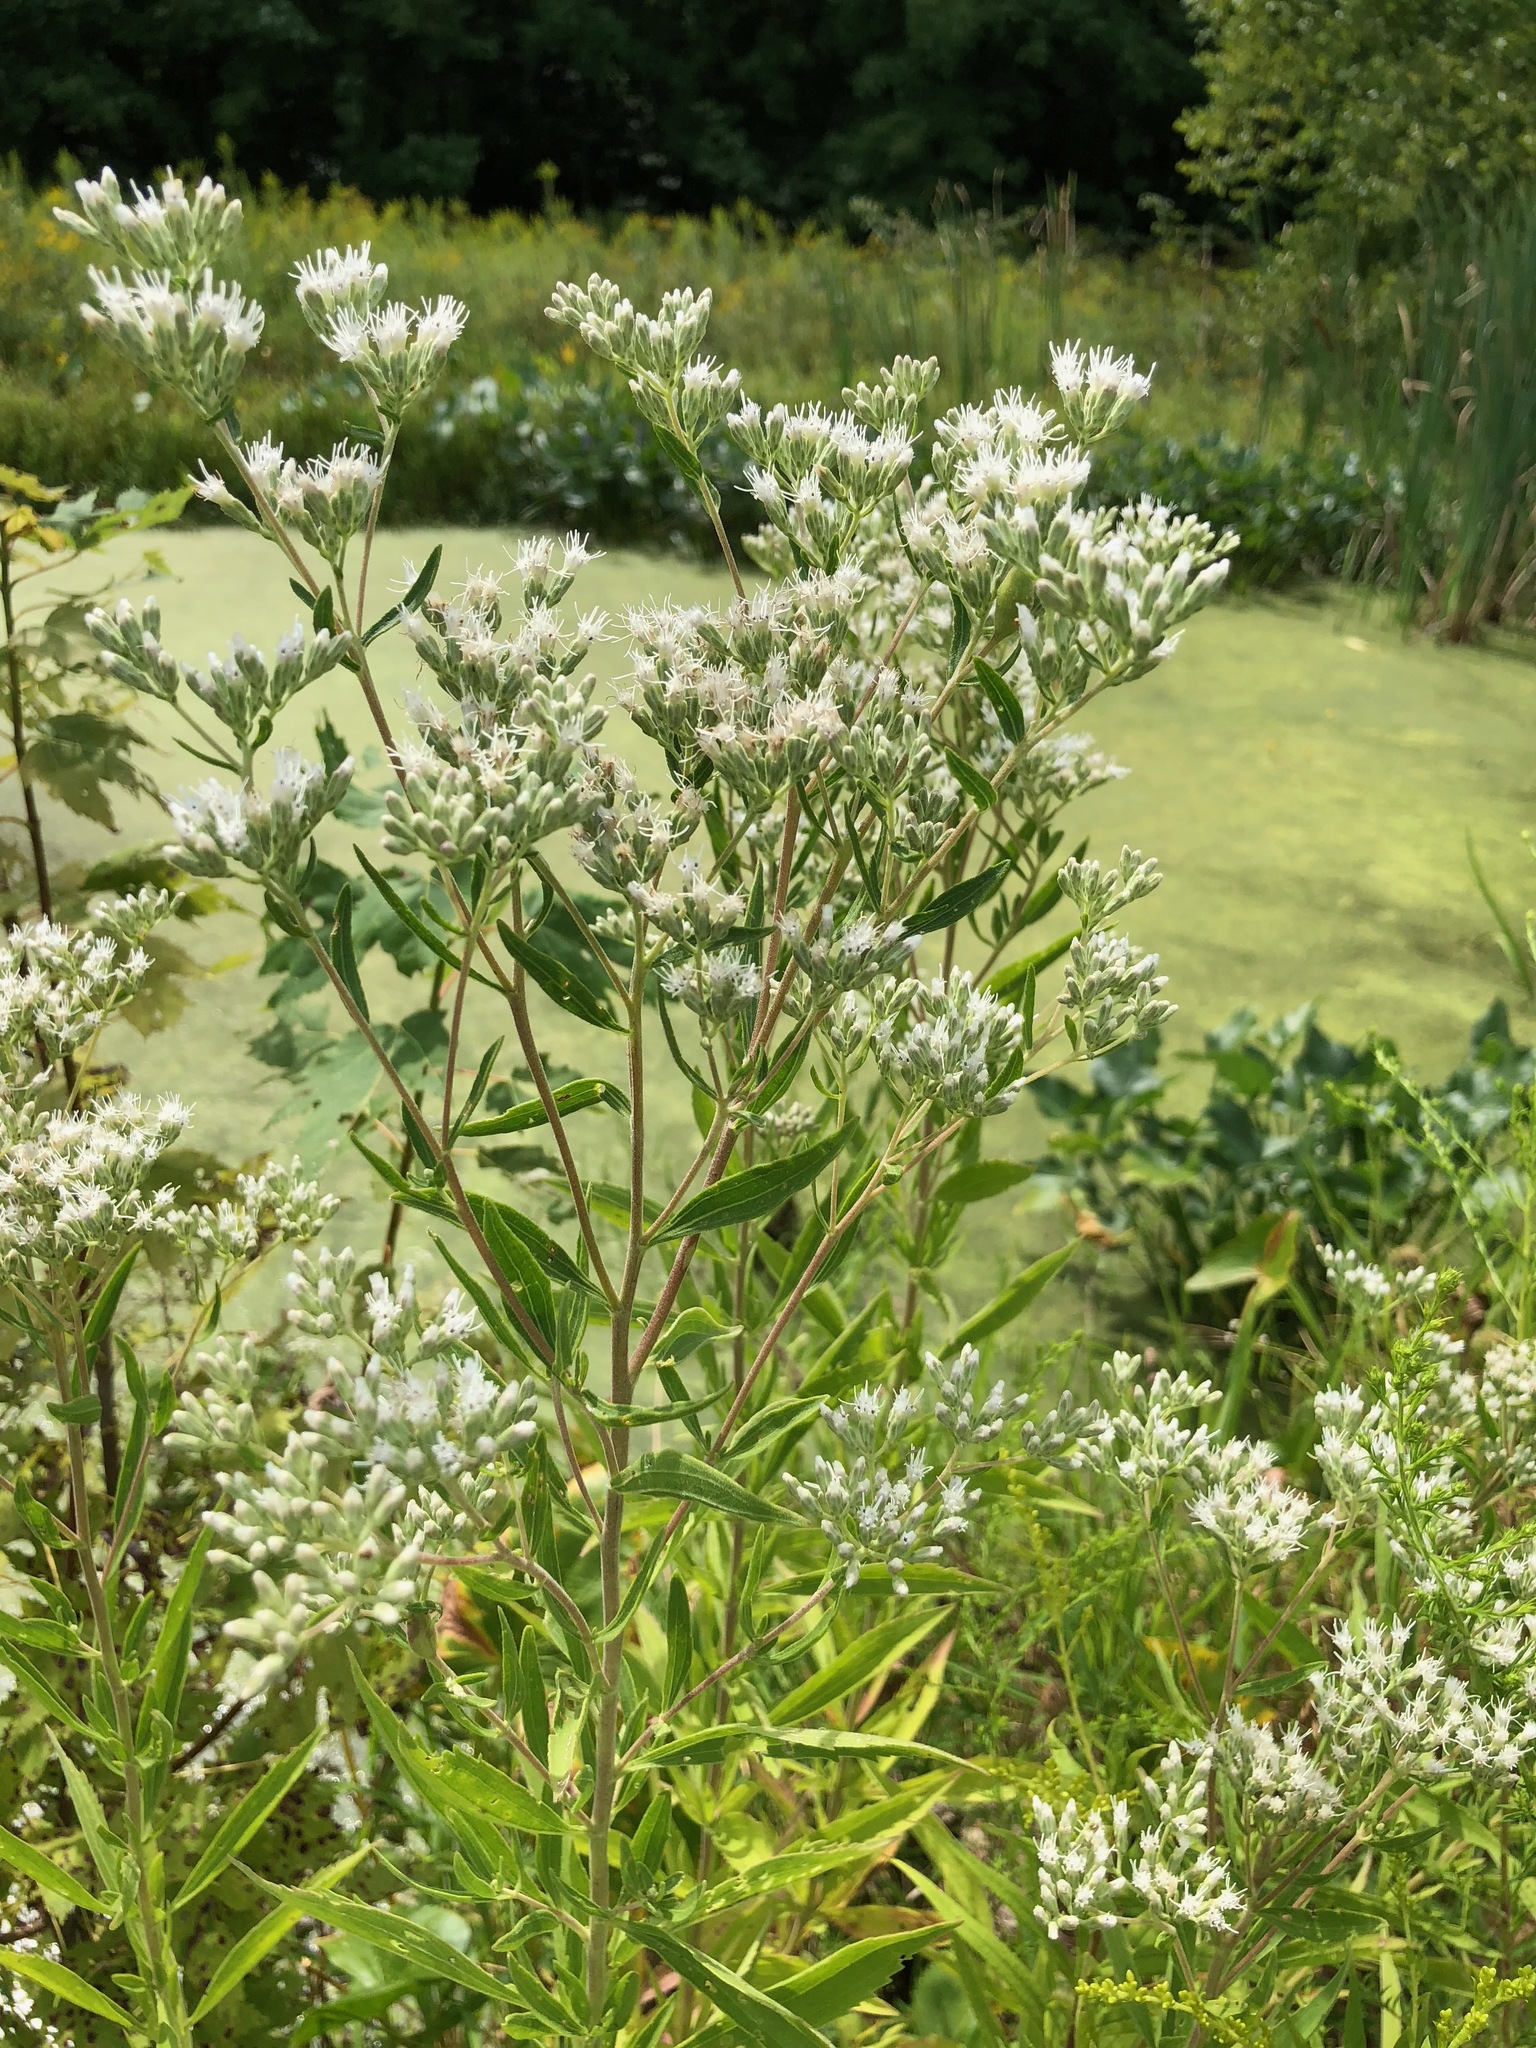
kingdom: Plantae
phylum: Tracheophyta
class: Magnoliopsida
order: Asterales
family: Asteraceae
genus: Eupatorium
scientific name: Eupatorium altissimum
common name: Tall thoroughwort
